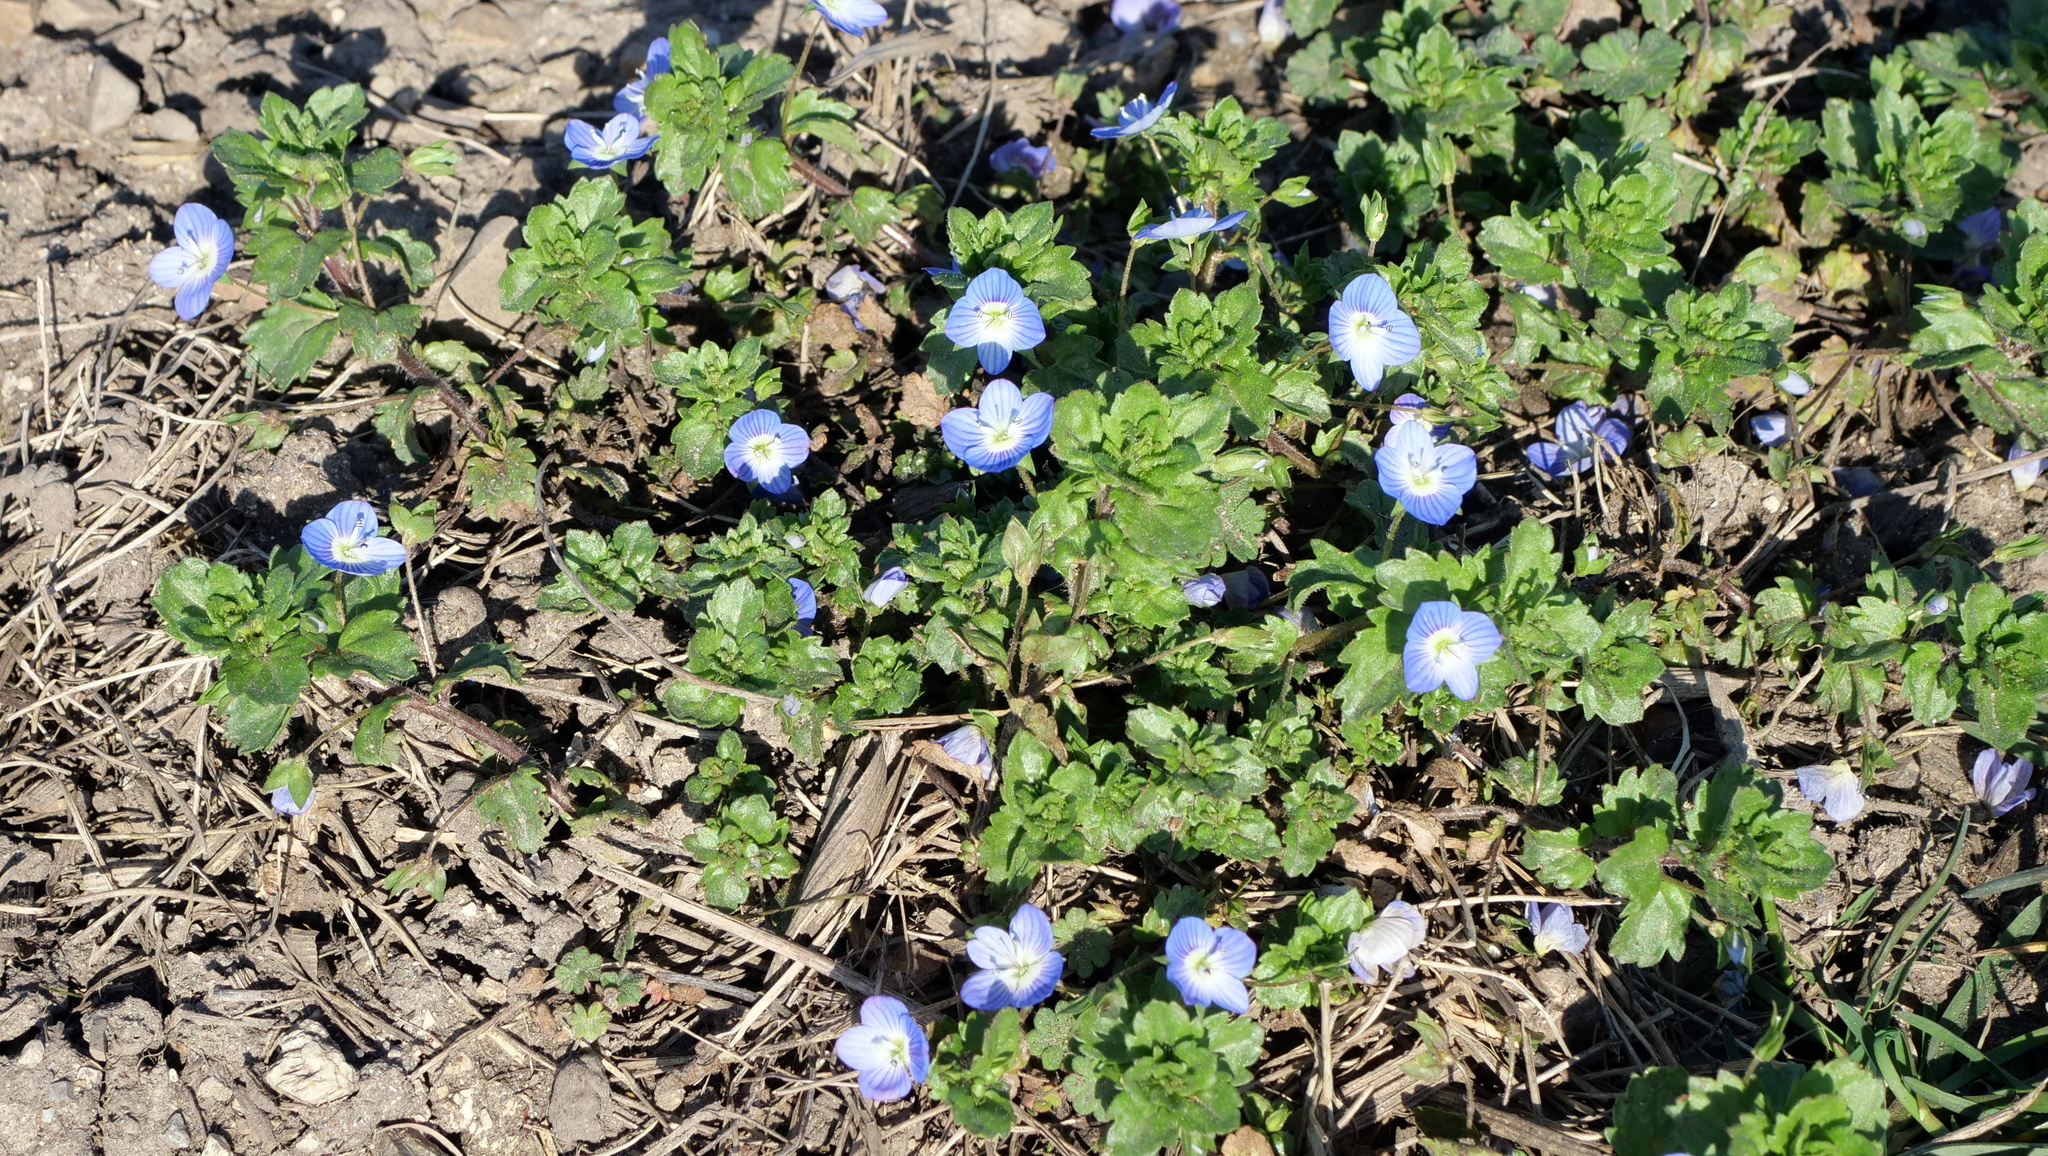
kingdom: Plantae
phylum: Tracheophyta
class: Magnoliopsida
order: Lamiales
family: Plantaginaceae
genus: Veronica
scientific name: Veronica persica
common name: Common field-speedwell
